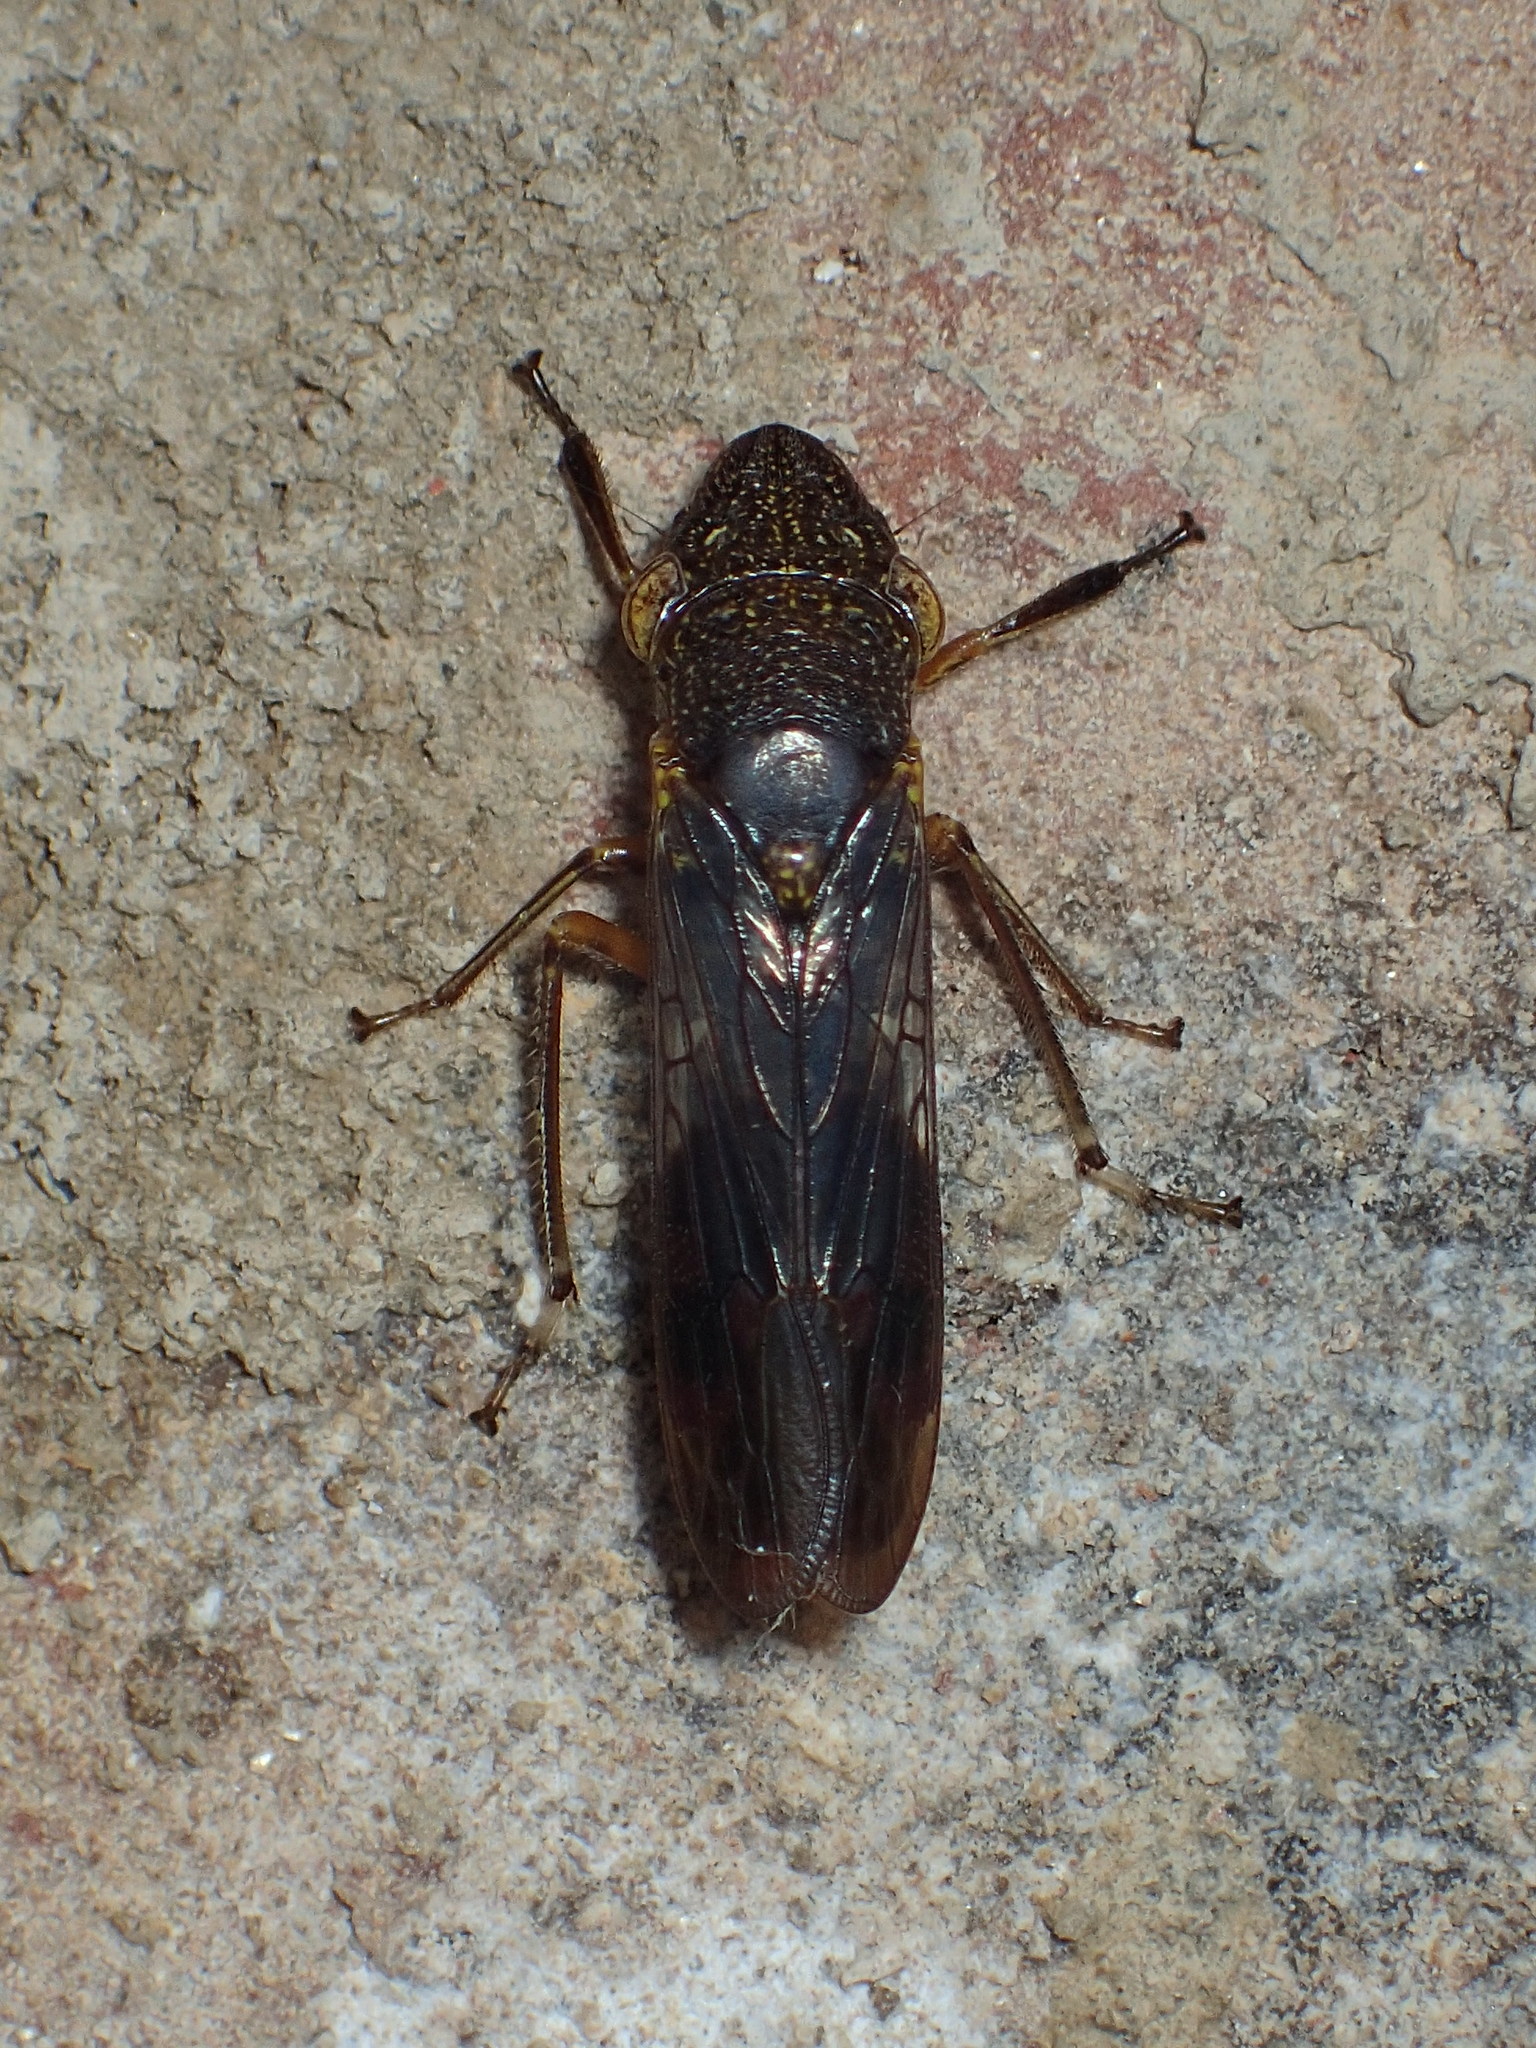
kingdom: Animalia
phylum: Arthropoda
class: Insecta
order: Hemiptera
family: Cicadellidae
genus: Homalodisca
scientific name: Homalodisca vitripennis
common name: Glassy-winged sharpshooter
